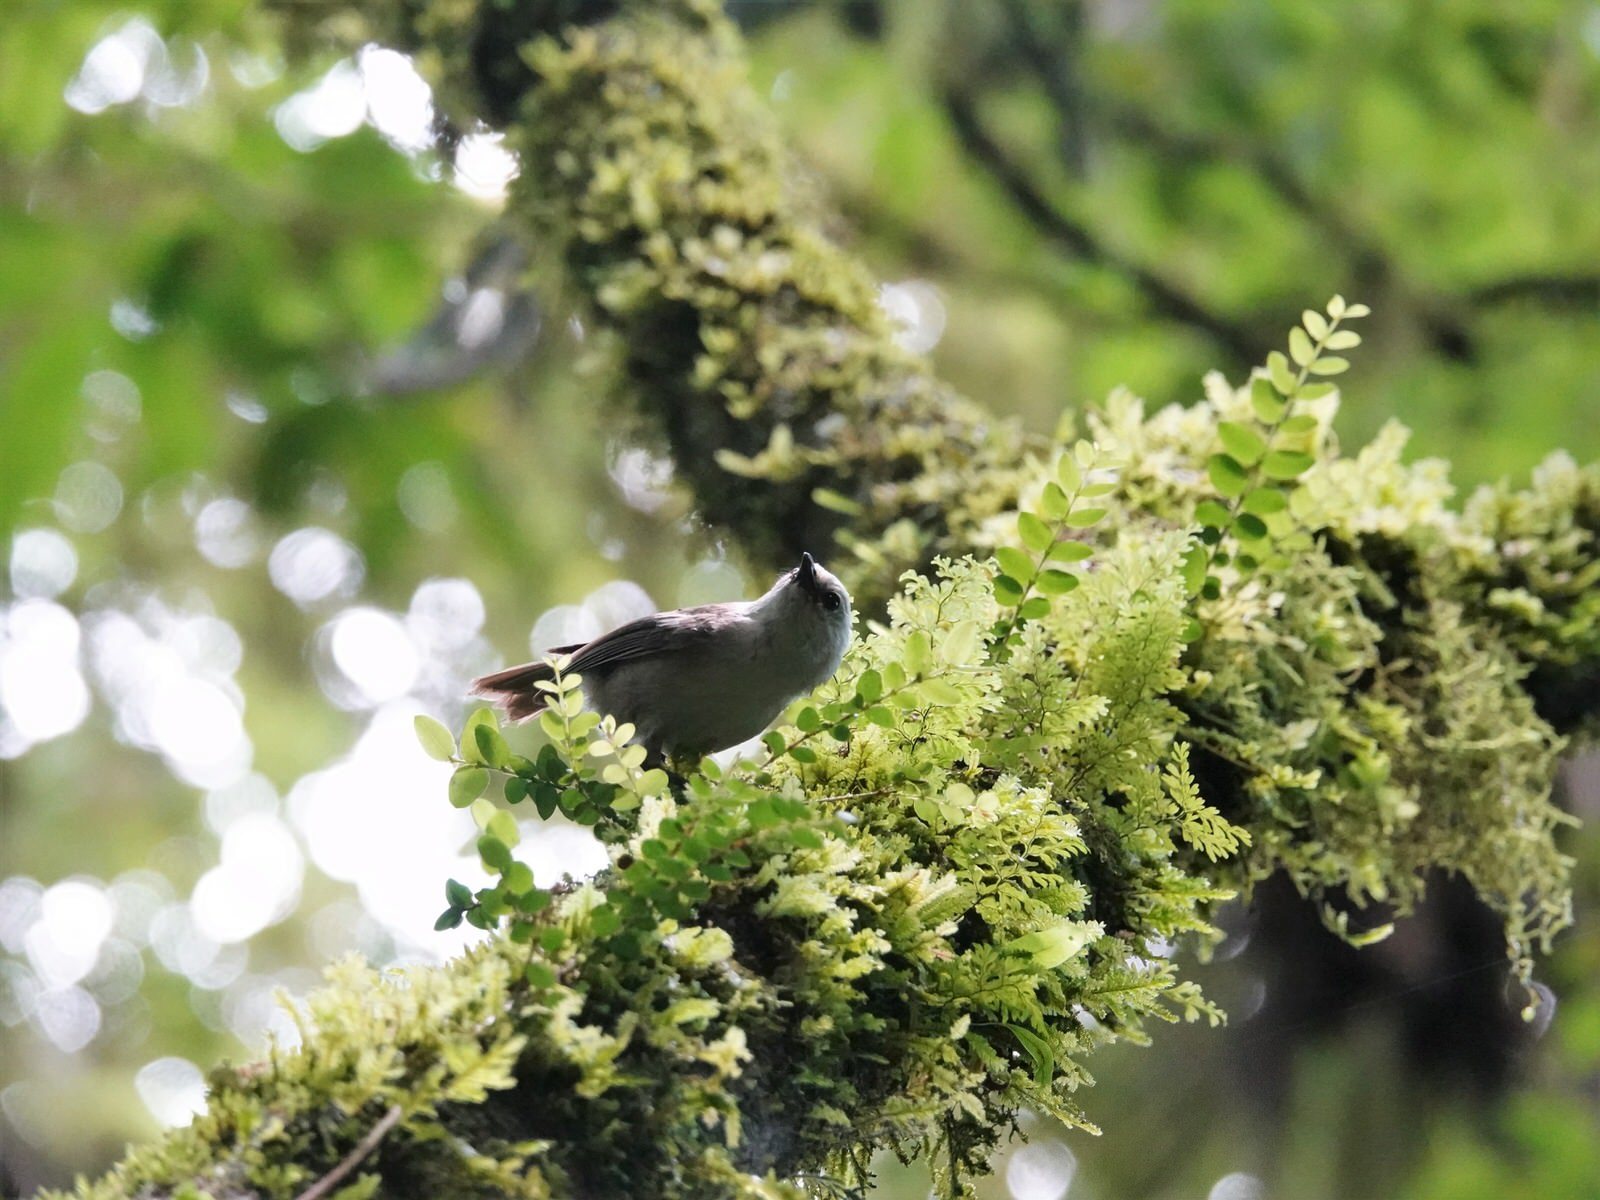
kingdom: Animalia
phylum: Chordata
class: Aves
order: Passeriformes
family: Acanthizidae
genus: Mohoua
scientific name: Mohoua albicilla
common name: Whitehead
